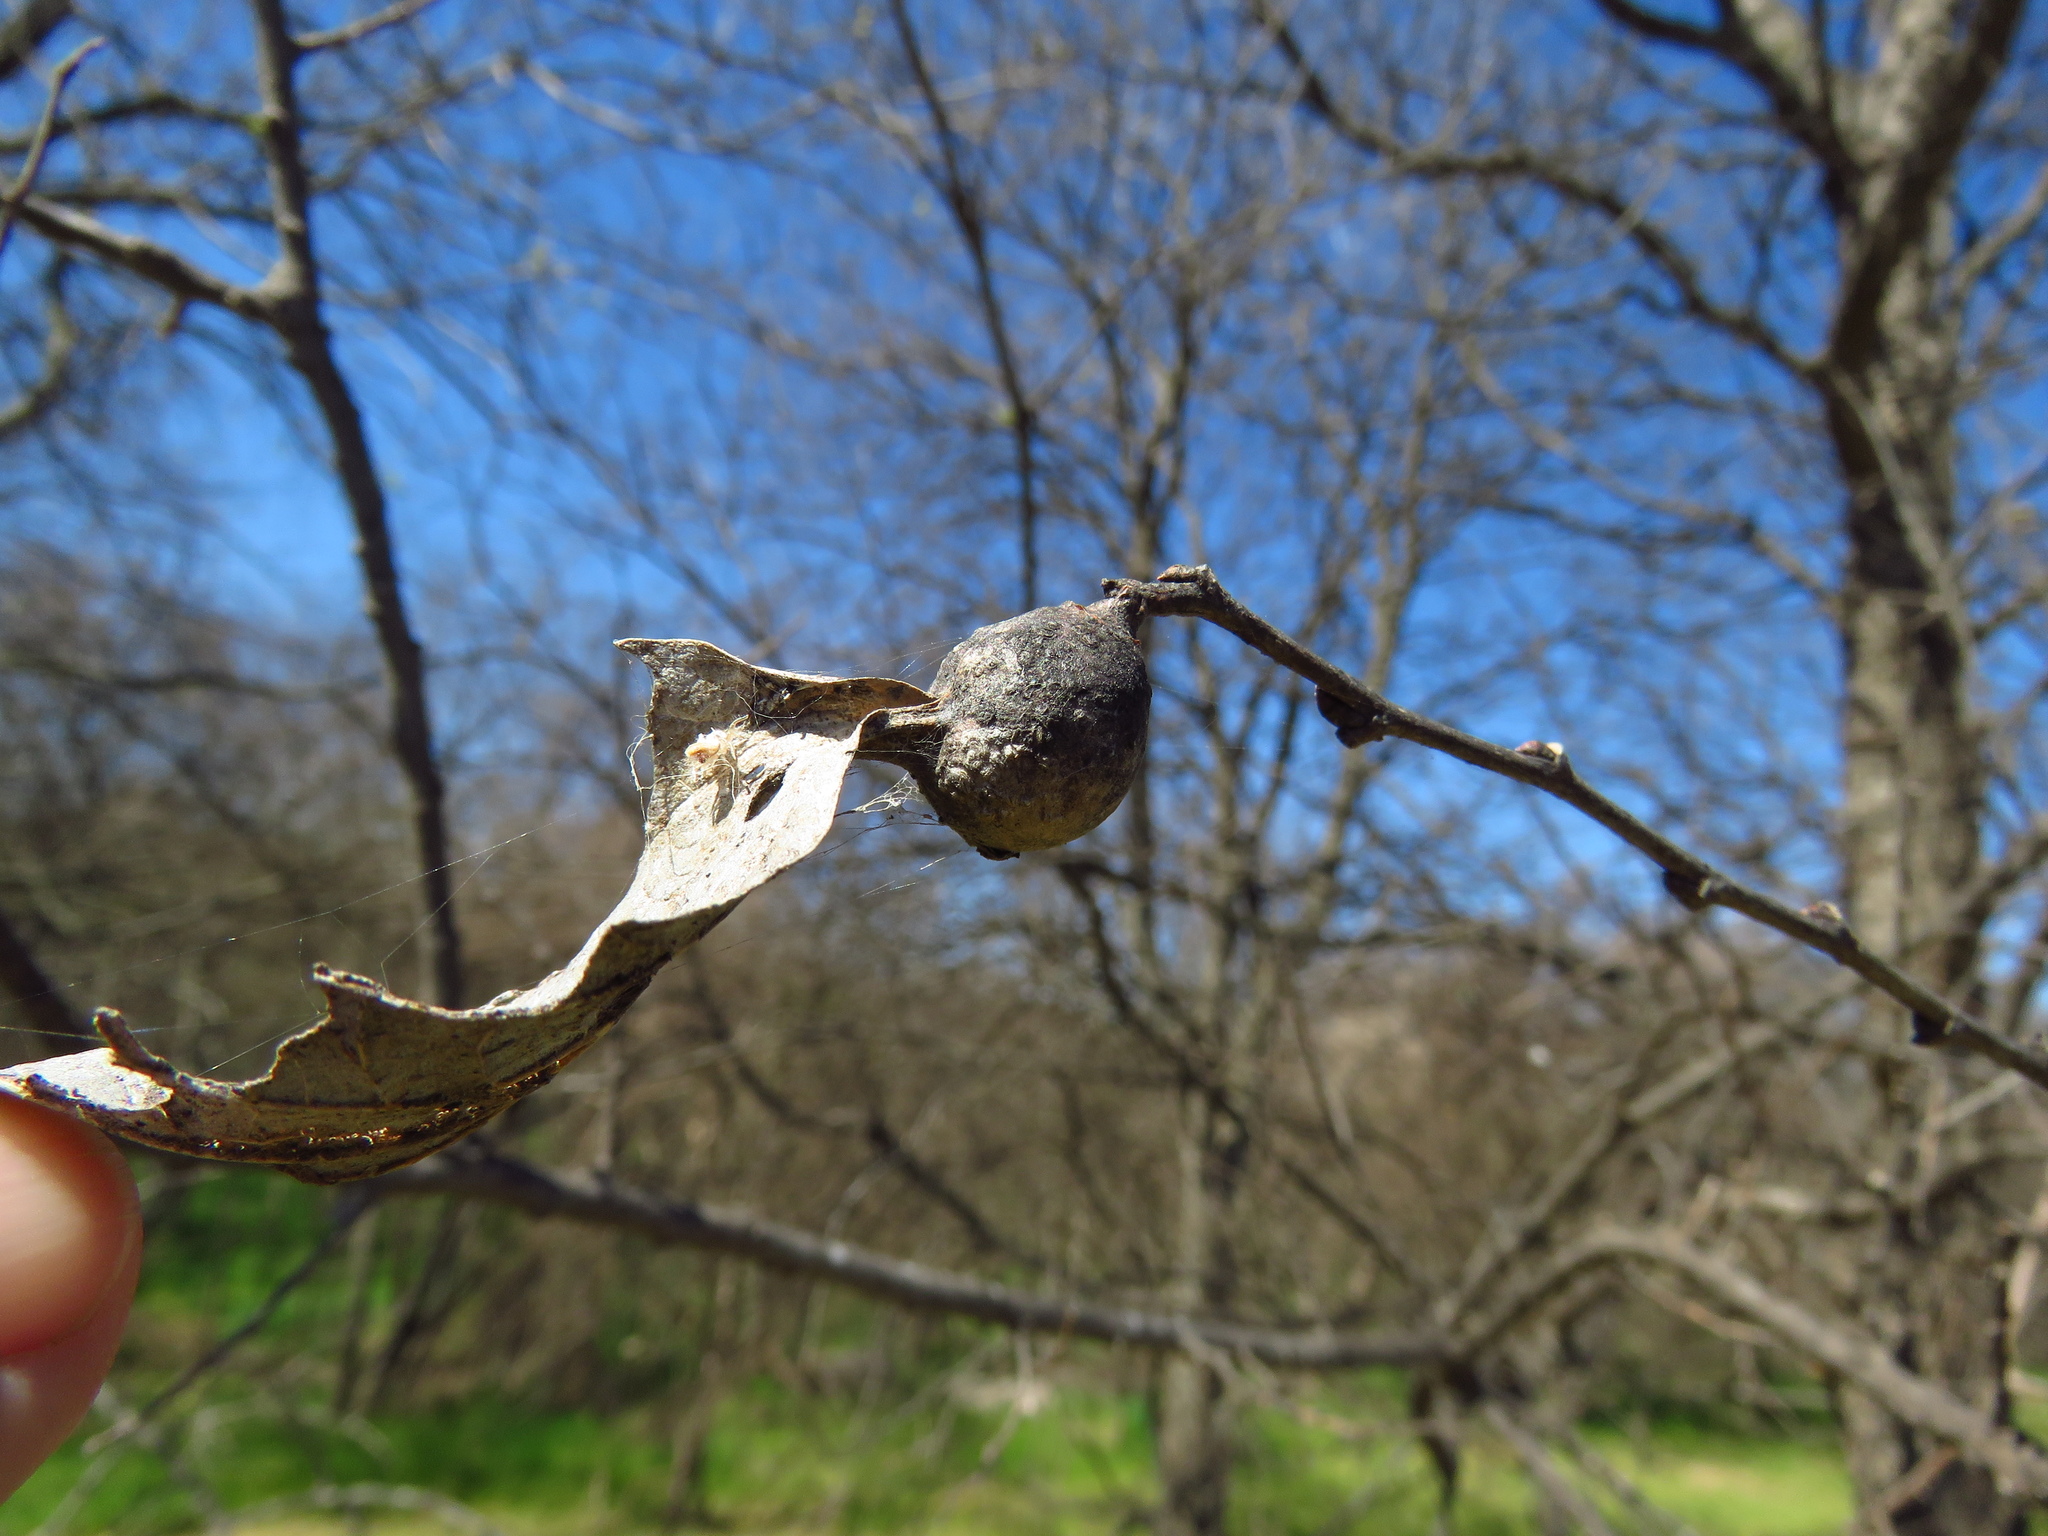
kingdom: Animalia
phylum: Arthropoda
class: Insecta
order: Hemiptera
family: Aphalaridae
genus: Pachypsylla
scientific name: Pachypsylla venusta
